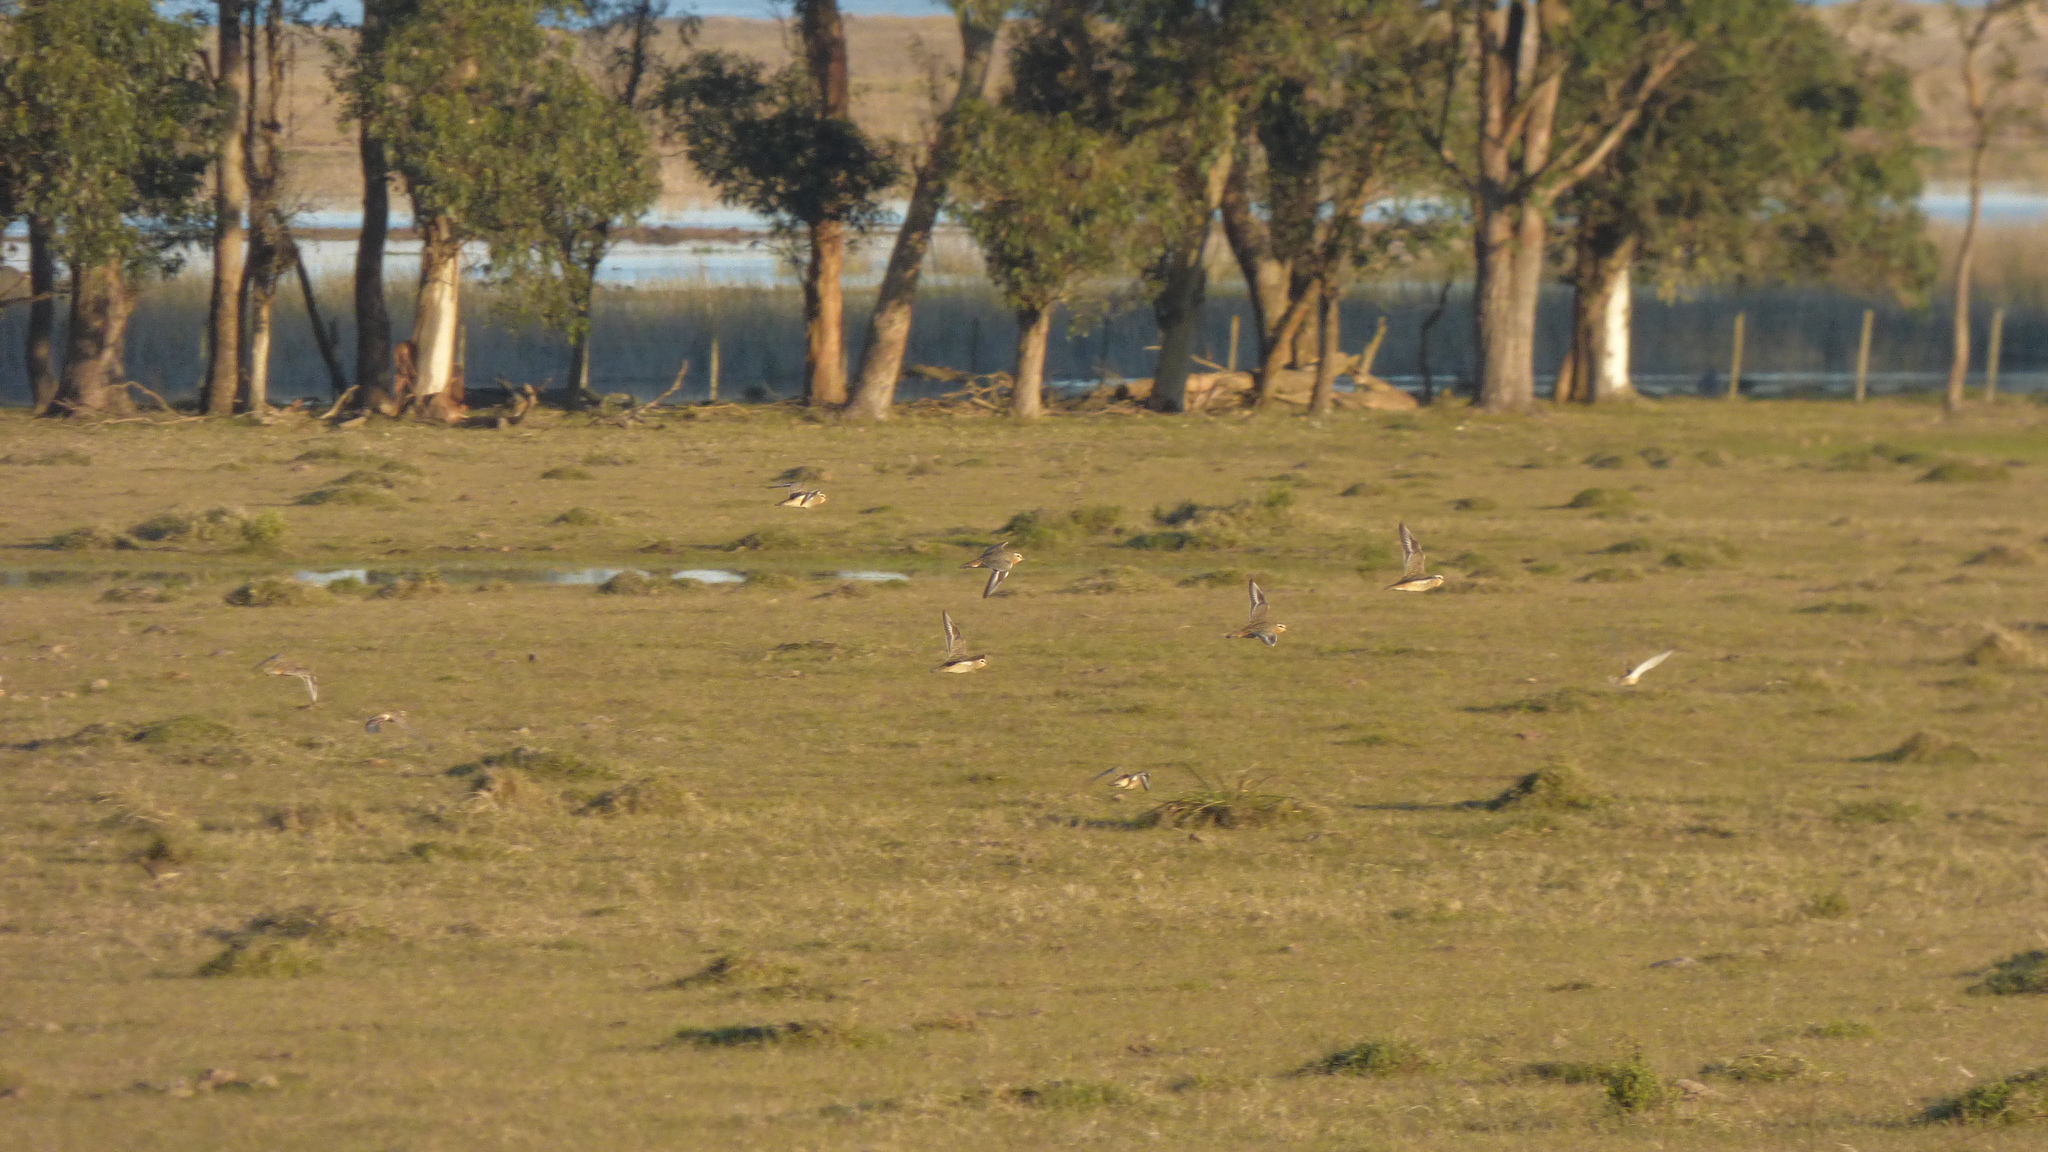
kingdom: Animalia
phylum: Chordata
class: Aves
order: Charadriiformes
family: Charadriidae
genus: Oreopholus
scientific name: Oreopholus ruficollis
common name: Tawny-throated dotterel
